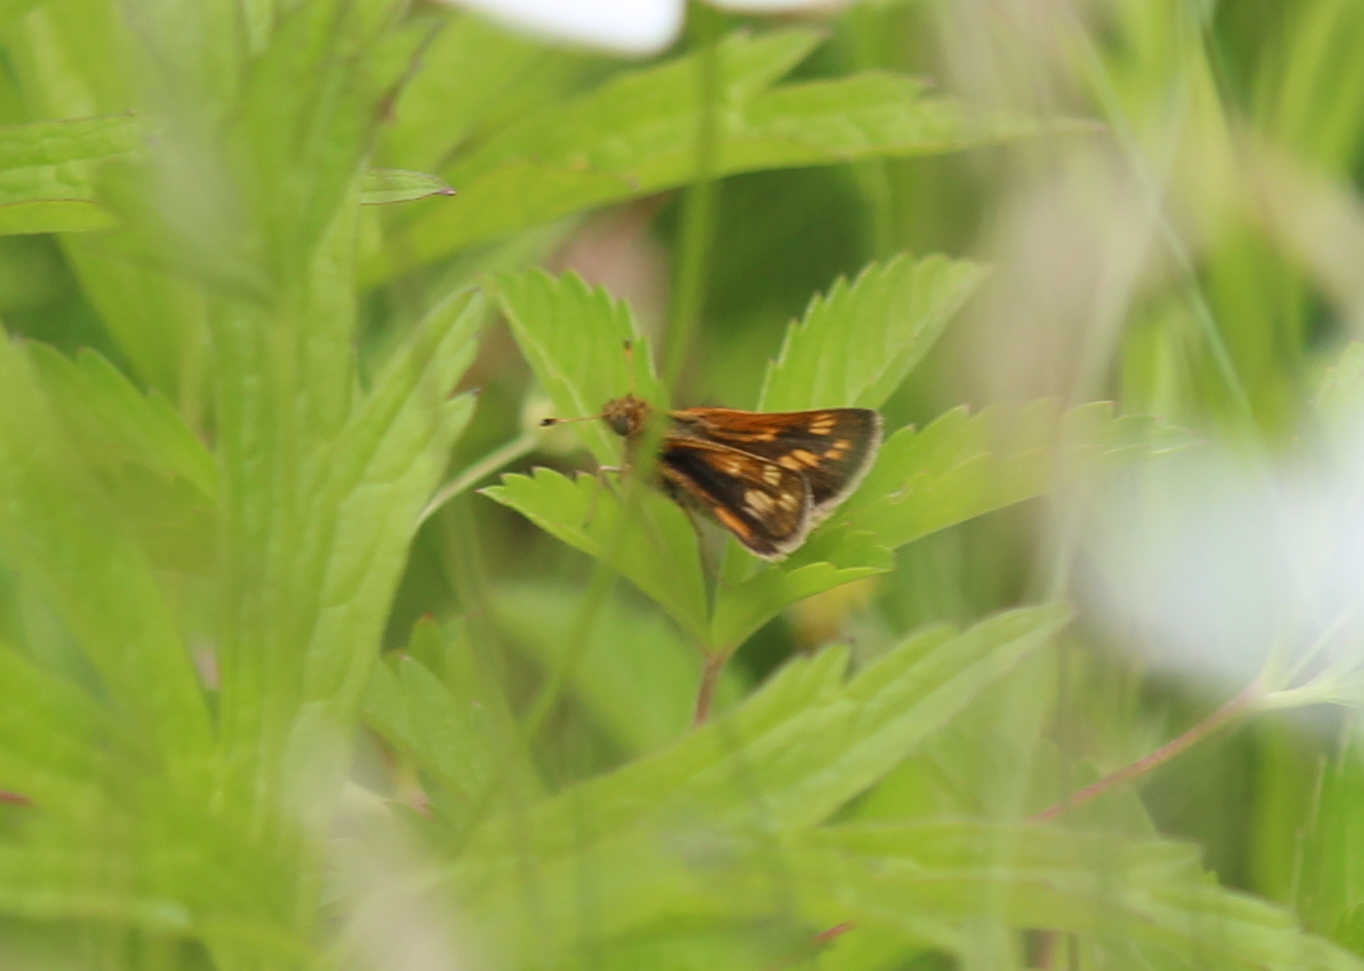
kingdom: Animalia
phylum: Arthropoda
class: Insecta
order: Lepidoptera
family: Hesperiidae
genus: Polites
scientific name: Polites coras
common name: Peck's skipper
